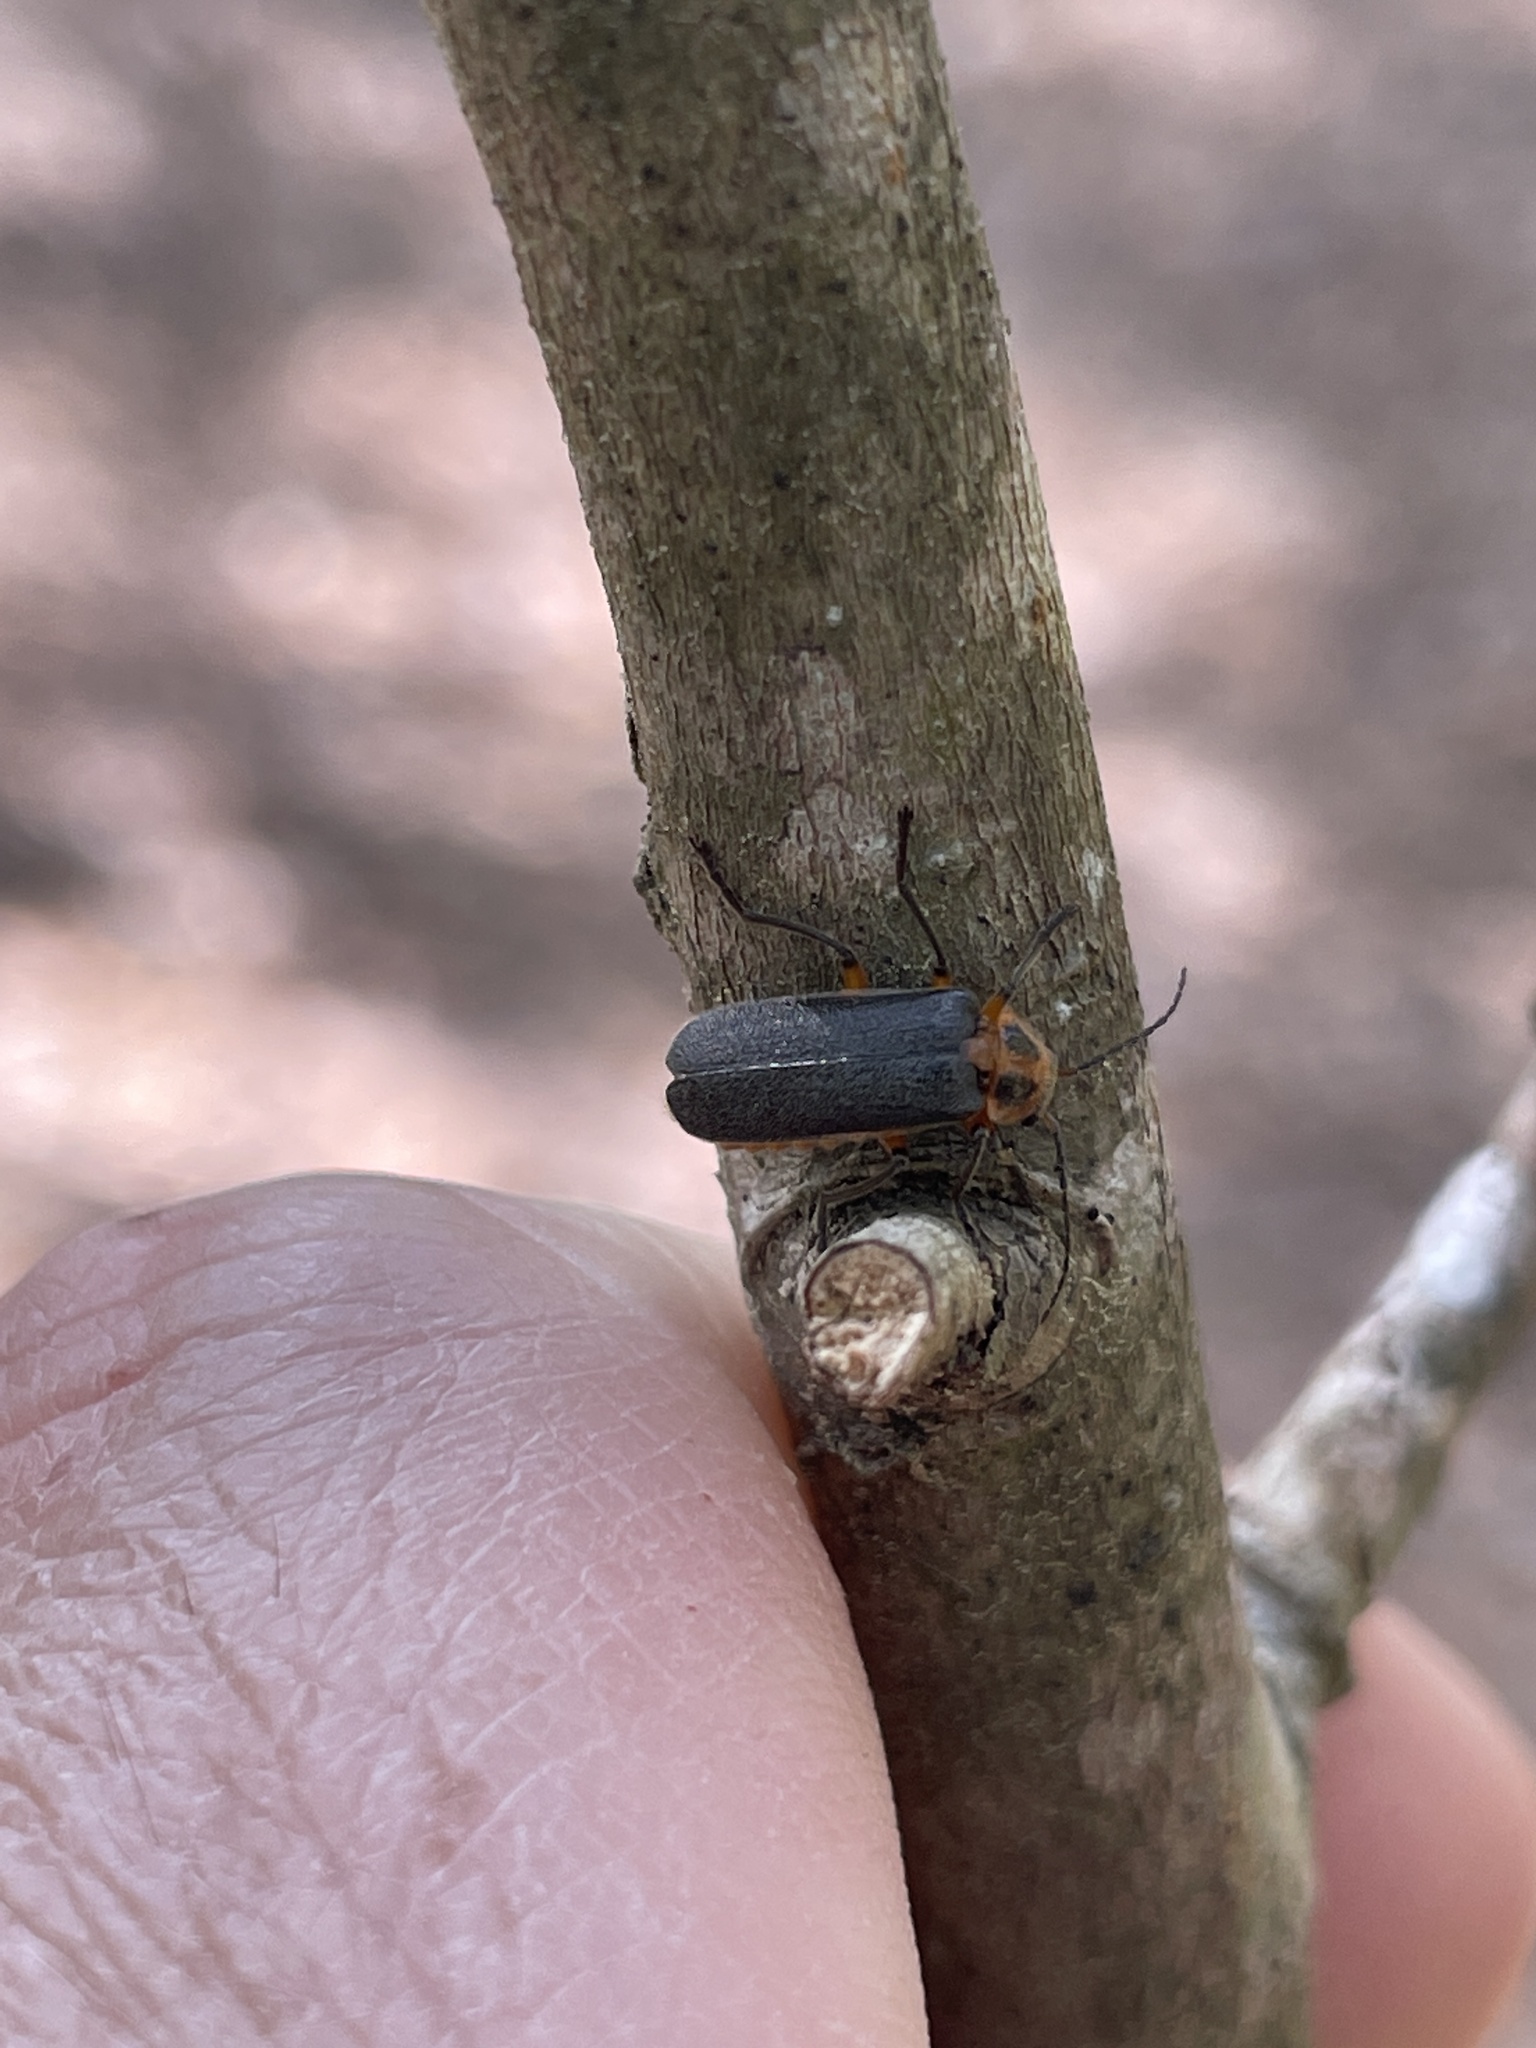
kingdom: Animalia
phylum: Arthropoda
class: Insecta
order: Coleoptera
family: Cantharidae
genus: Atalantycha
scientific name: Atalantycha bilineata
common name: Two-lined leatherwing
